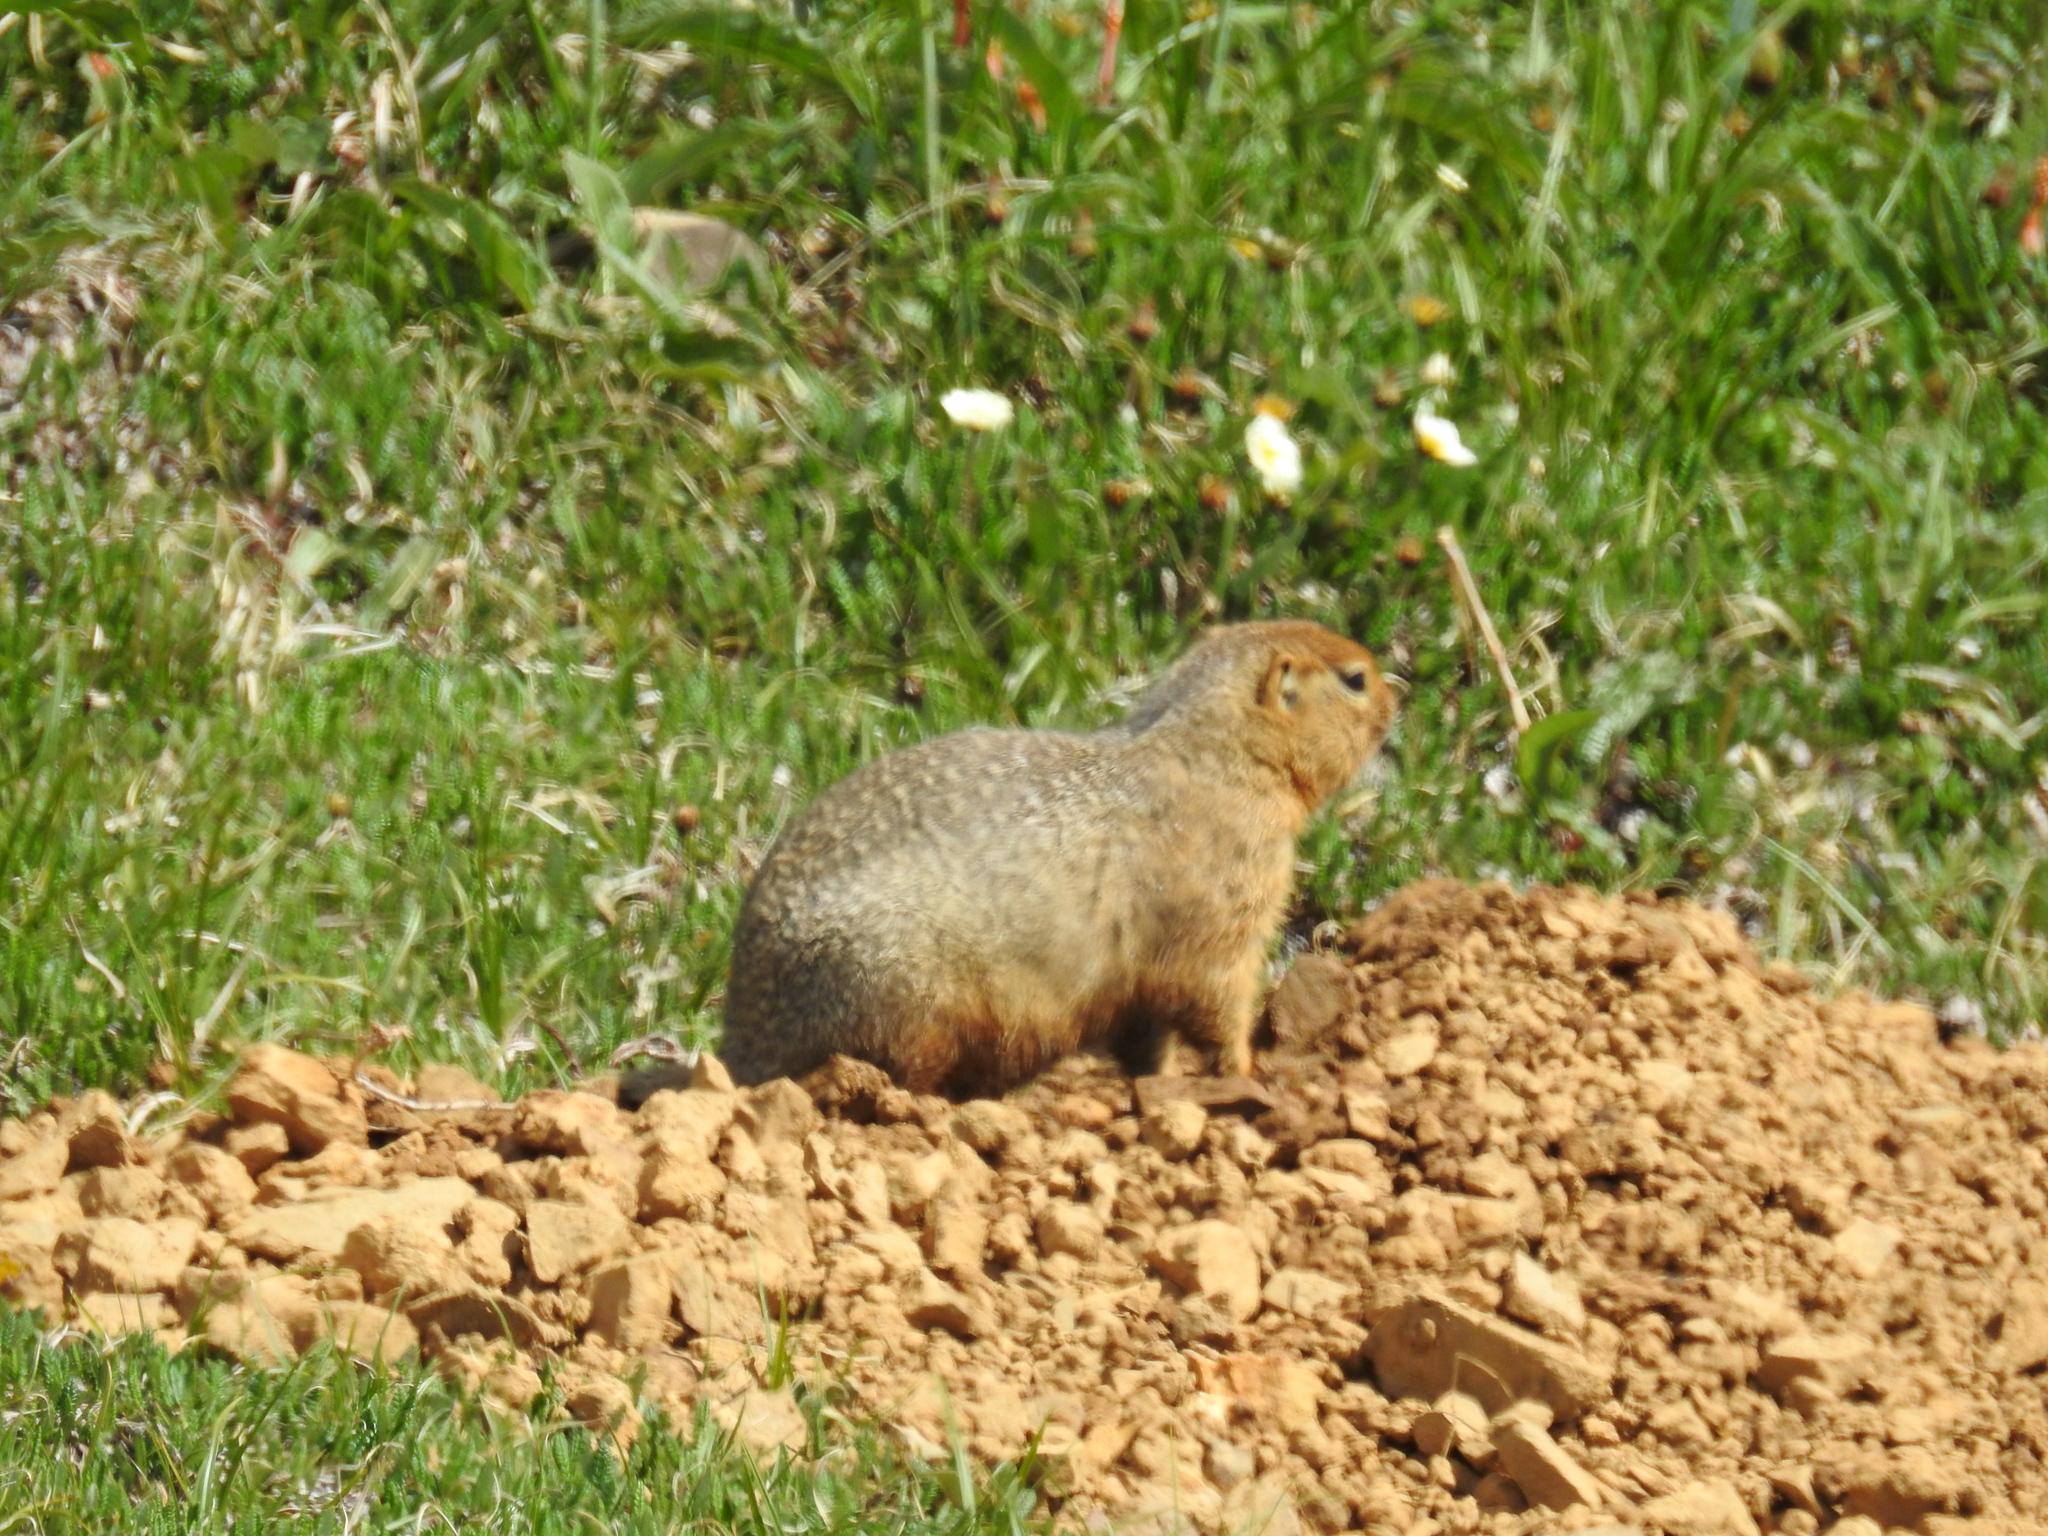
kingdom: Animalia
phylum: Chordata
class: Mammalia
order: Rodentia
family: Sciuridae
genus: Urocitellus
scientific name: Urocitellus parryii
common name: Arctic ground squirrel
